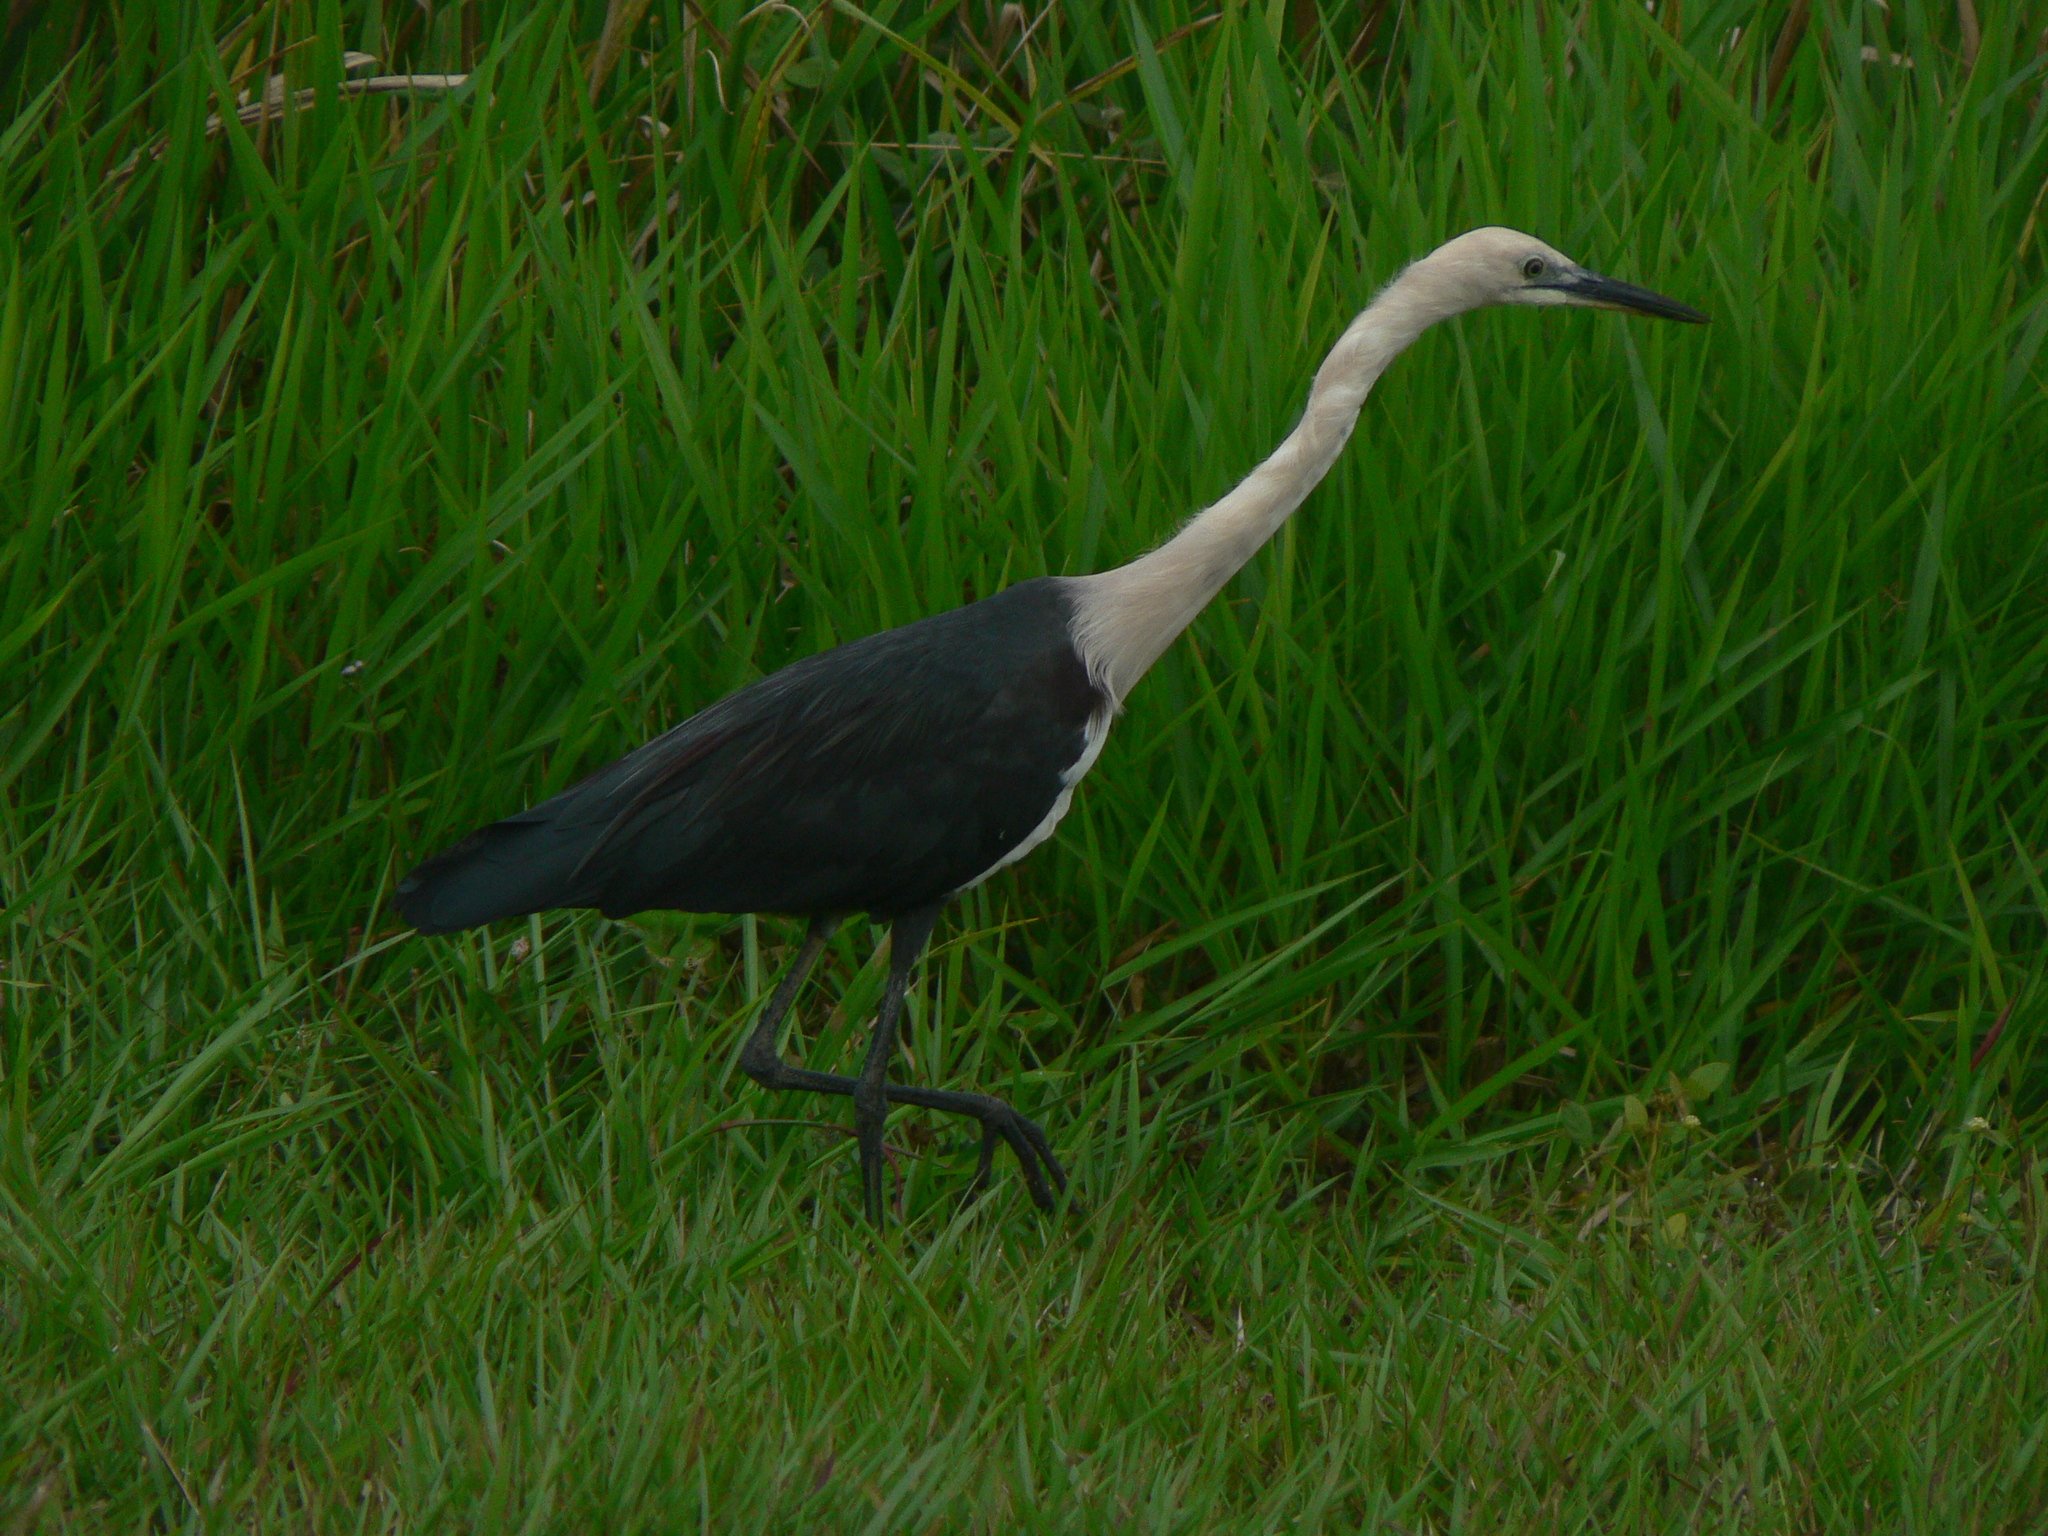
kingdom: Animalia
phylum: Chordata
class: Aves
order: Pelecaniformes
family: Ardeidae
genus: Ardea
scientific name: Ardea pacifica
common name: White-necked heron
